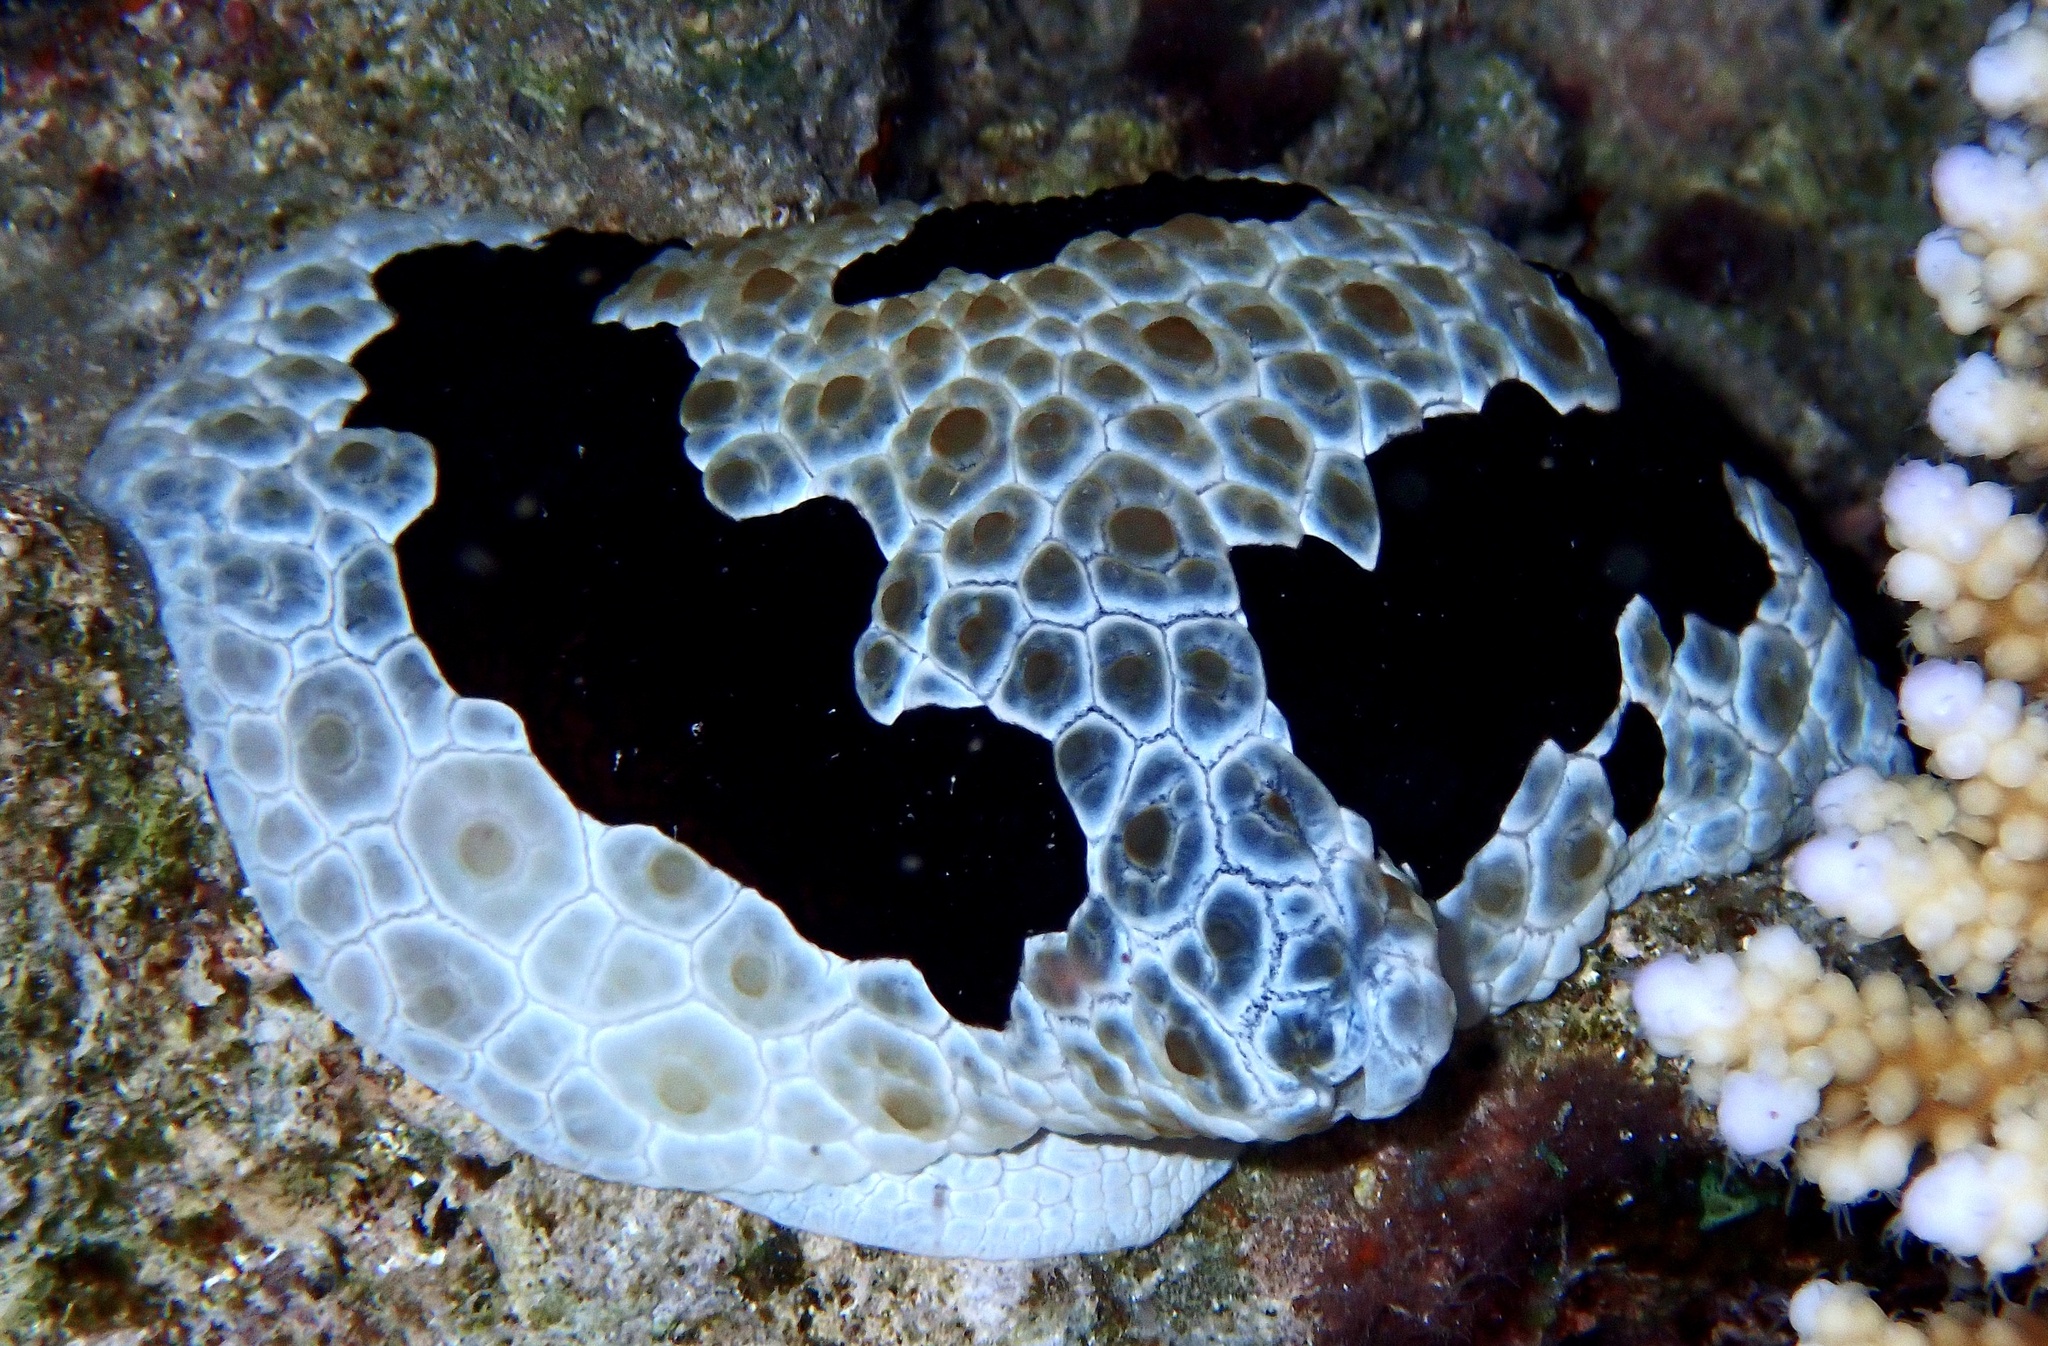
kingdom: Animalia
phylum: Mollusca
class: Gastropoda
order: Pleurobranchida
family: Pleurobranchidae
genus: Pleurobranchus
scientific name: Pleurobranchus grandis
